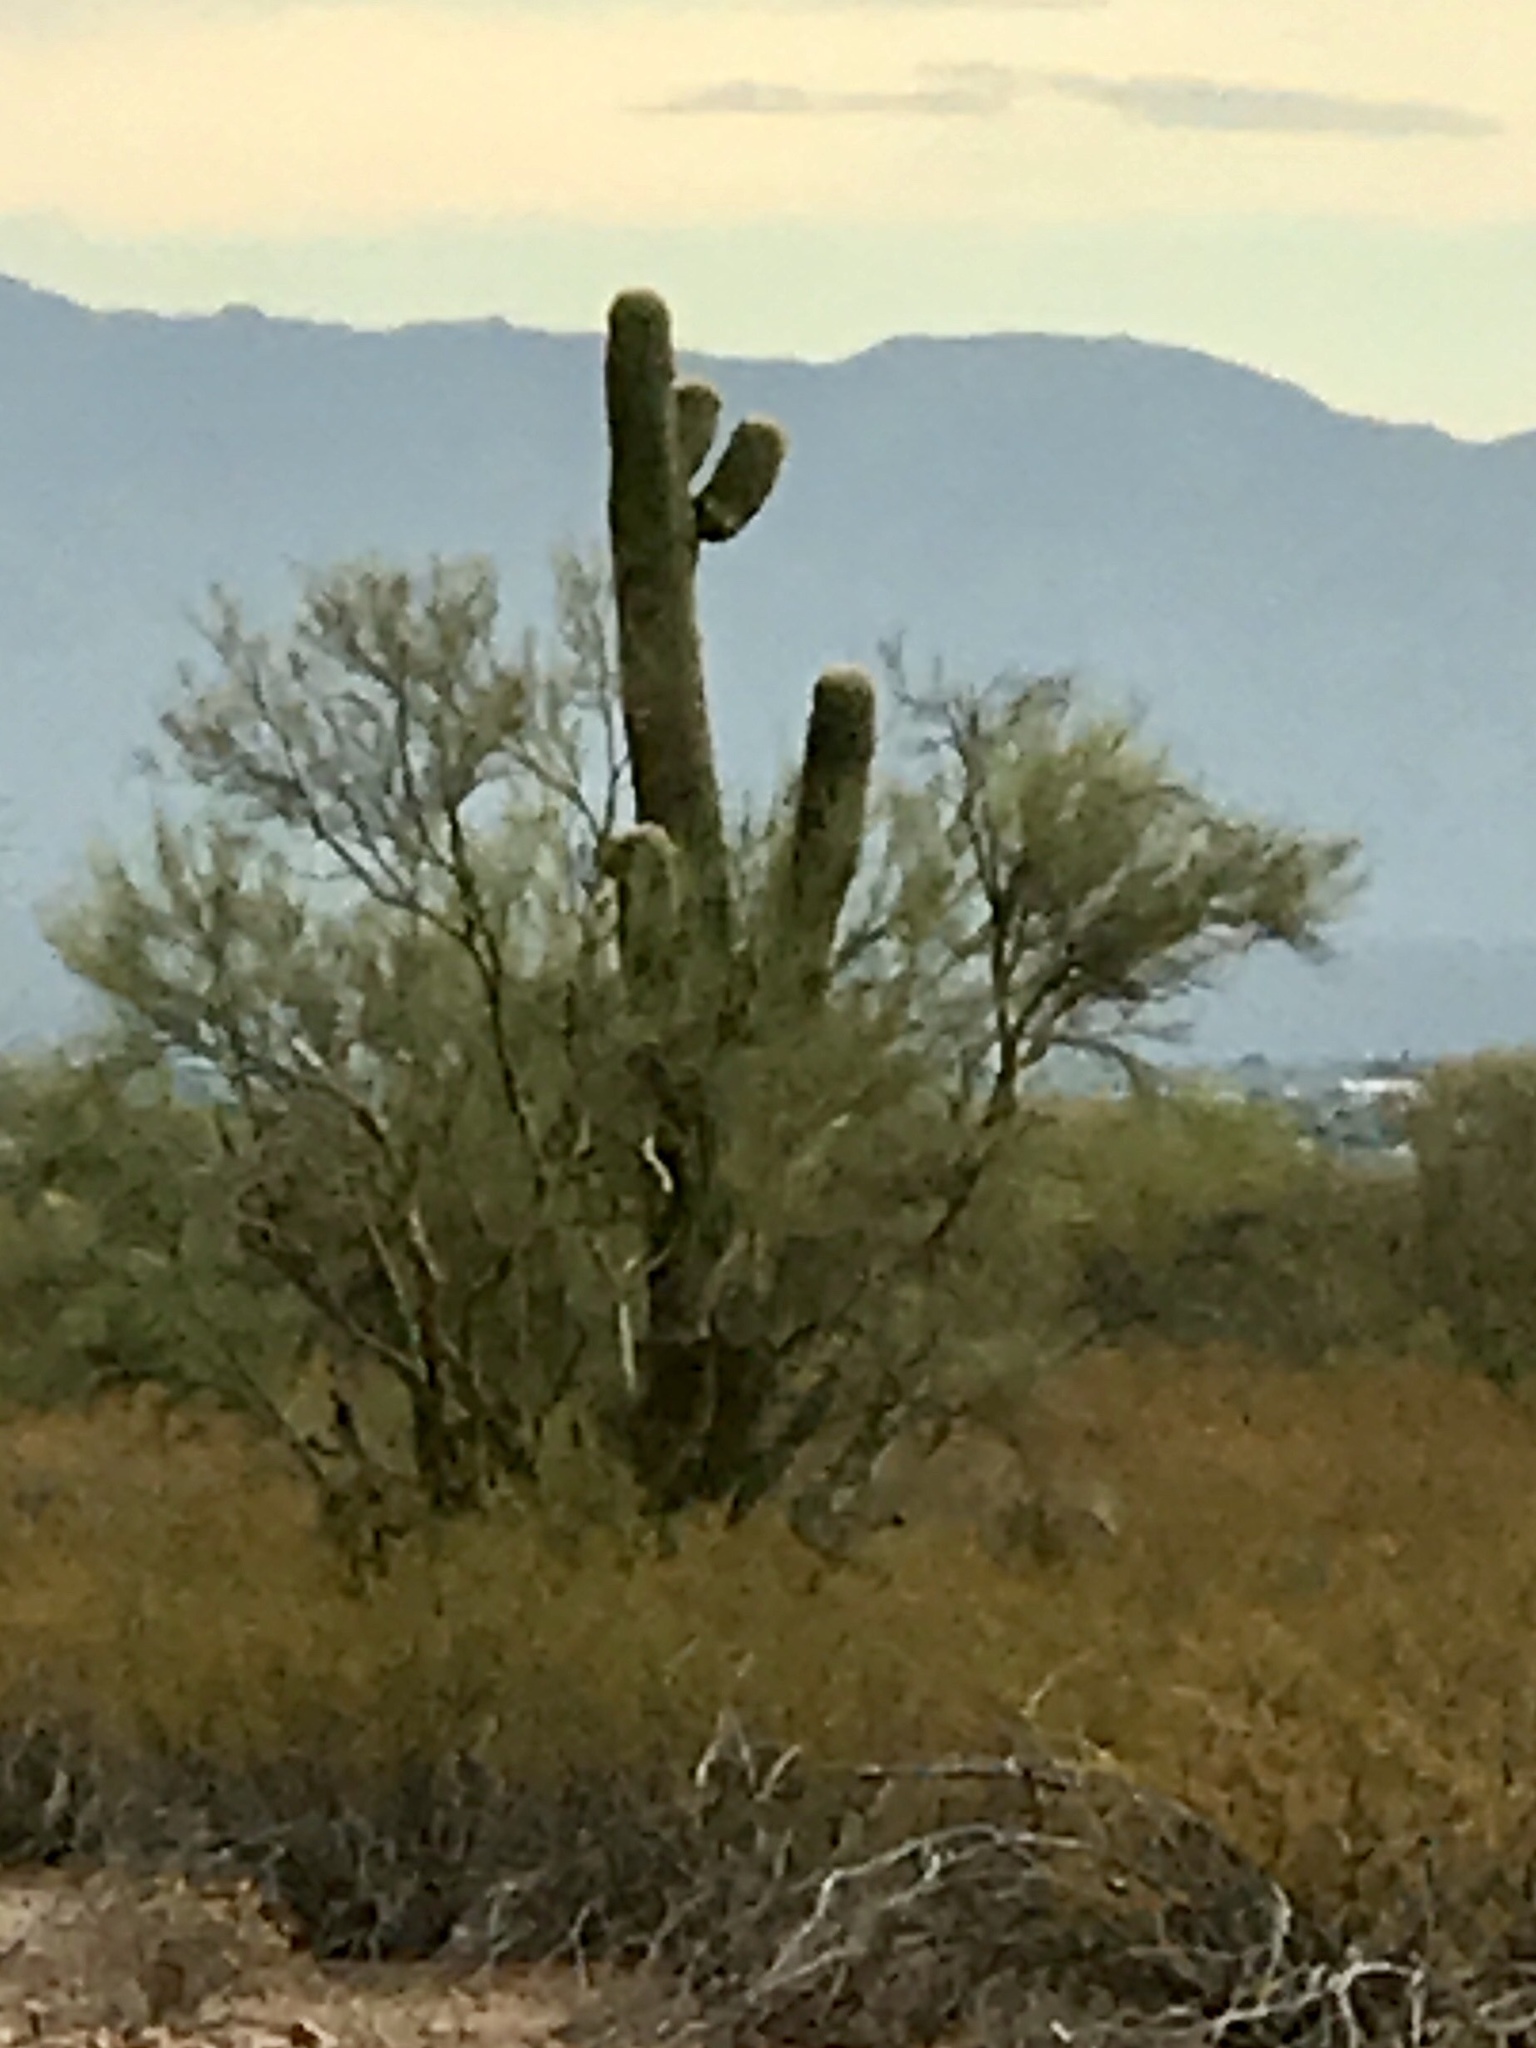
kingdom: Plantae
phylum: Tracheophyta
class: Magnoliopsida
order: Caryophyllales
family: Cactaceae
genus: Carnegiea
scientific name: Carnegiea gigantea
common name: Saguaro
